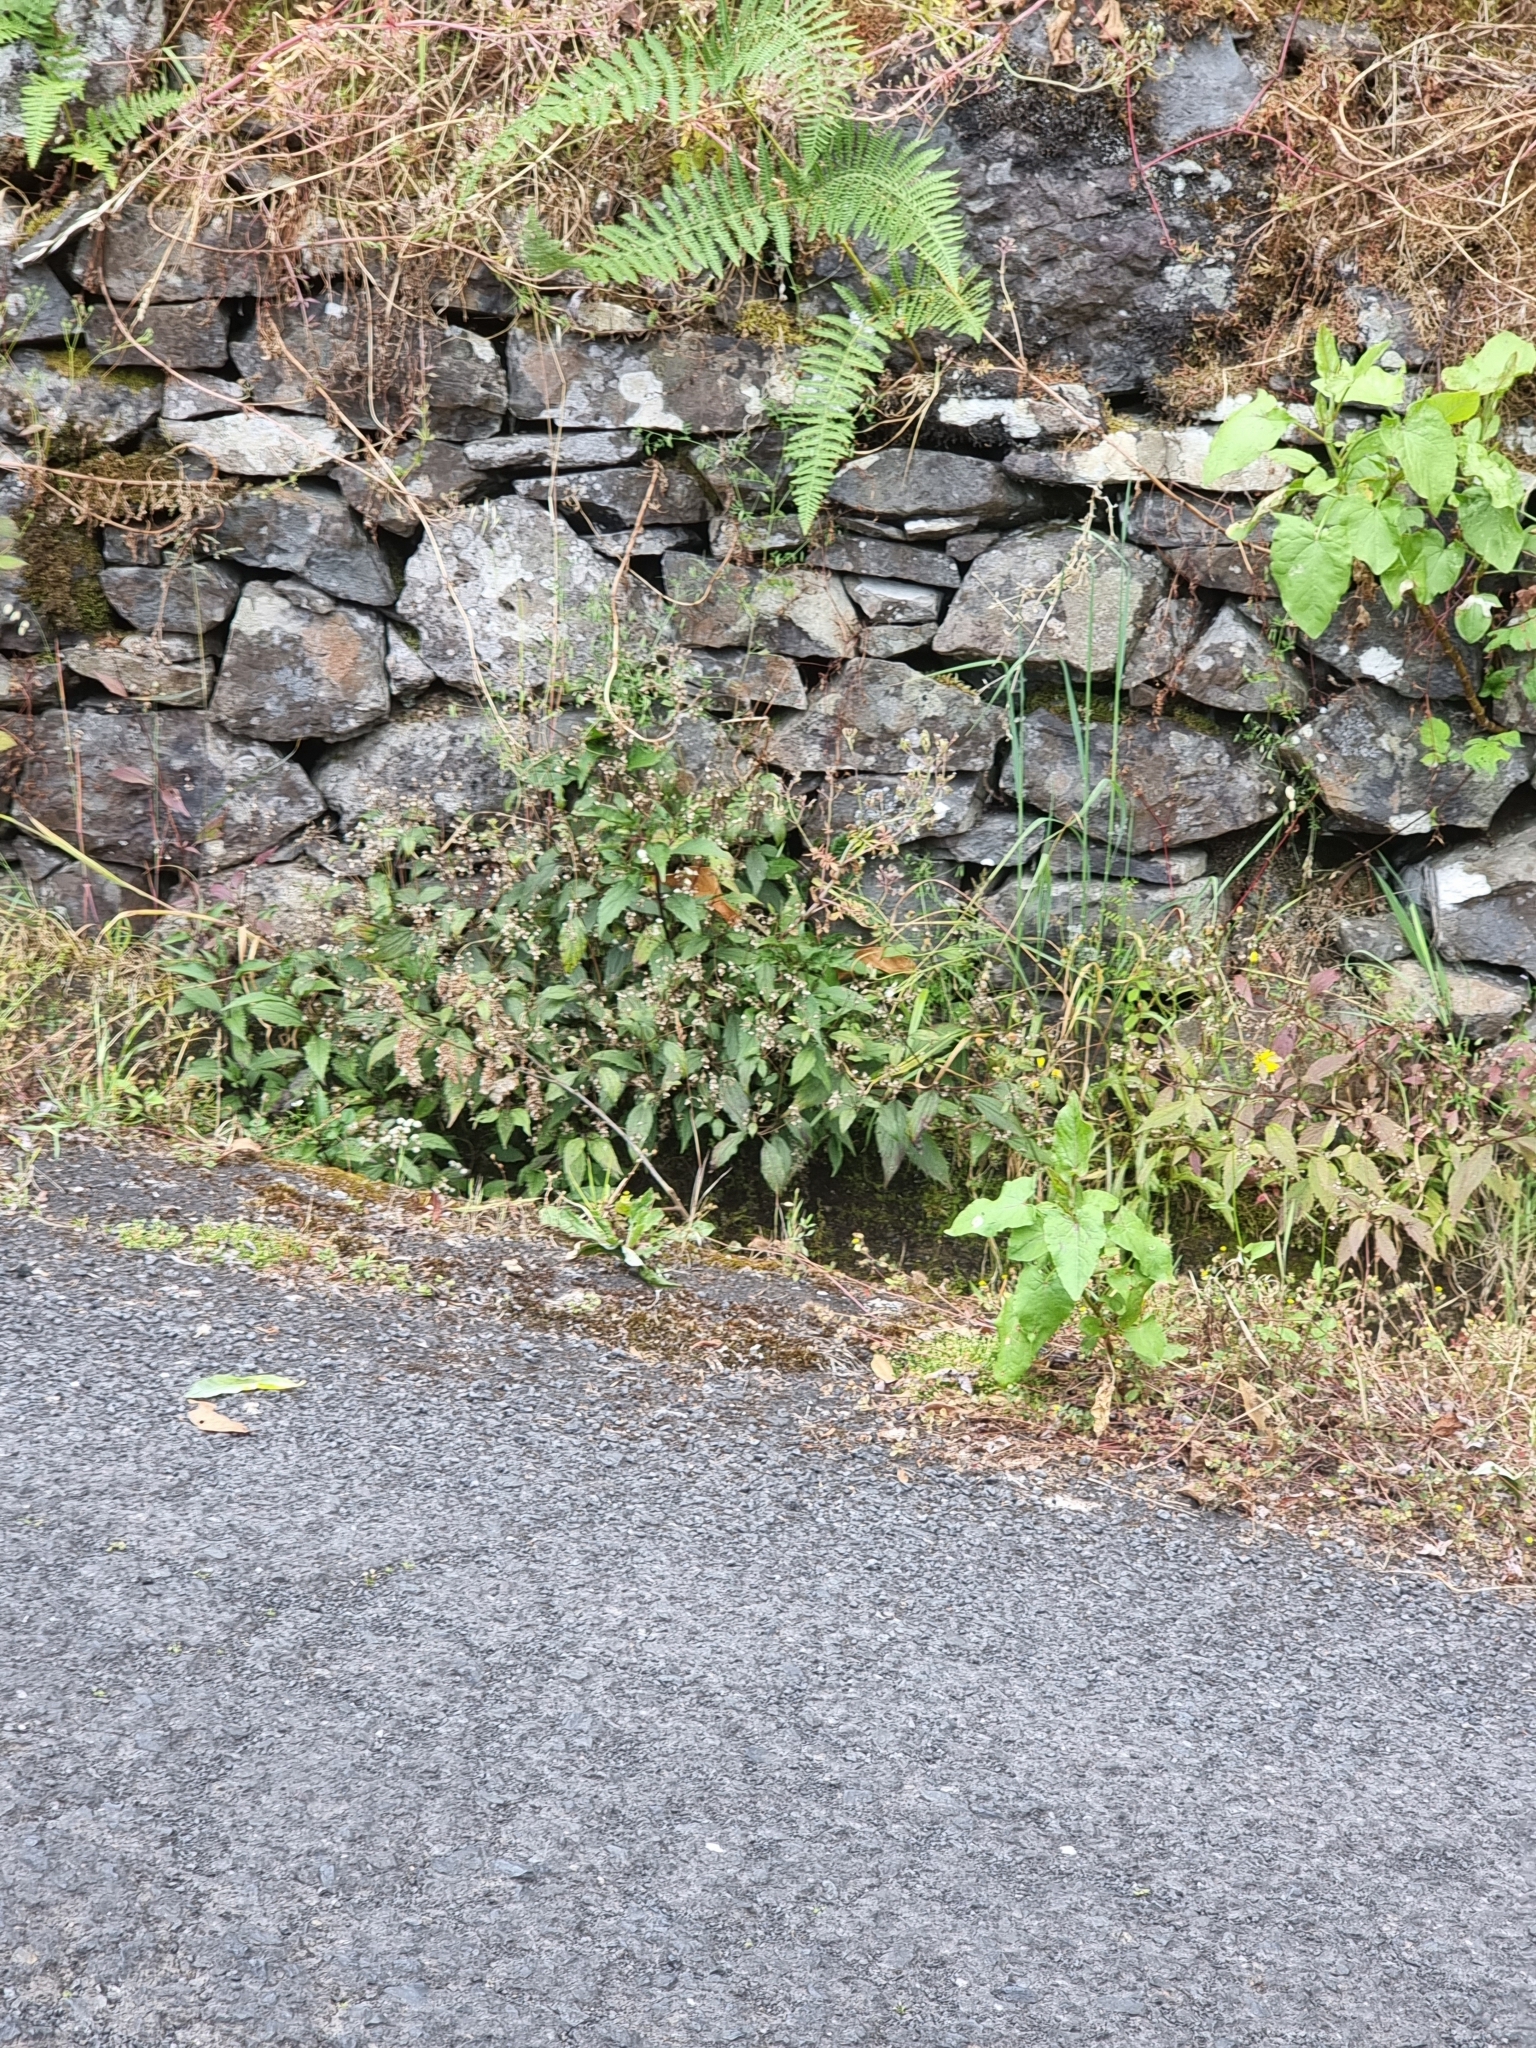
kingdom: Plantae
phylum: Tracheophyta
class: Magnoliopsida
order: Asterales
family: Asteraceae
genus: Ageratina
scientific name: Ageratina riparia
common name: Creeping croftonweed
